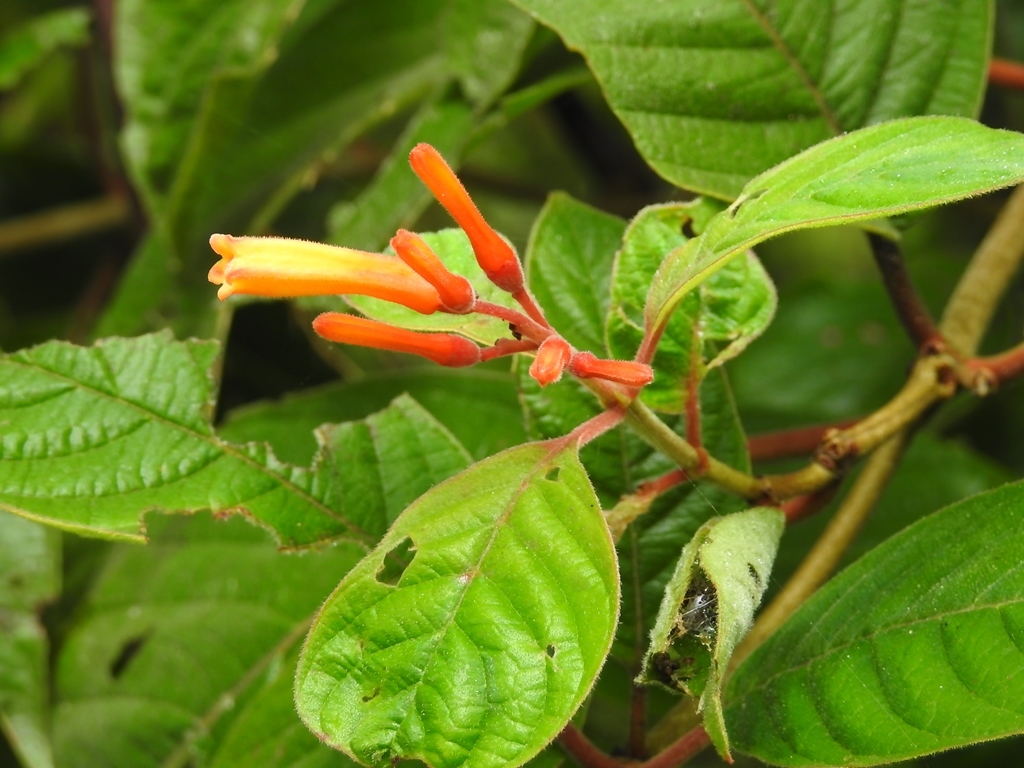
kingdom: Plantae
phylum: Tracheophyta
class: Magnoliopsida
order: Gentianales
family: Rubiaceae
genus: Hamelia
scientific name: Hamelia patens
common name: Redhead
